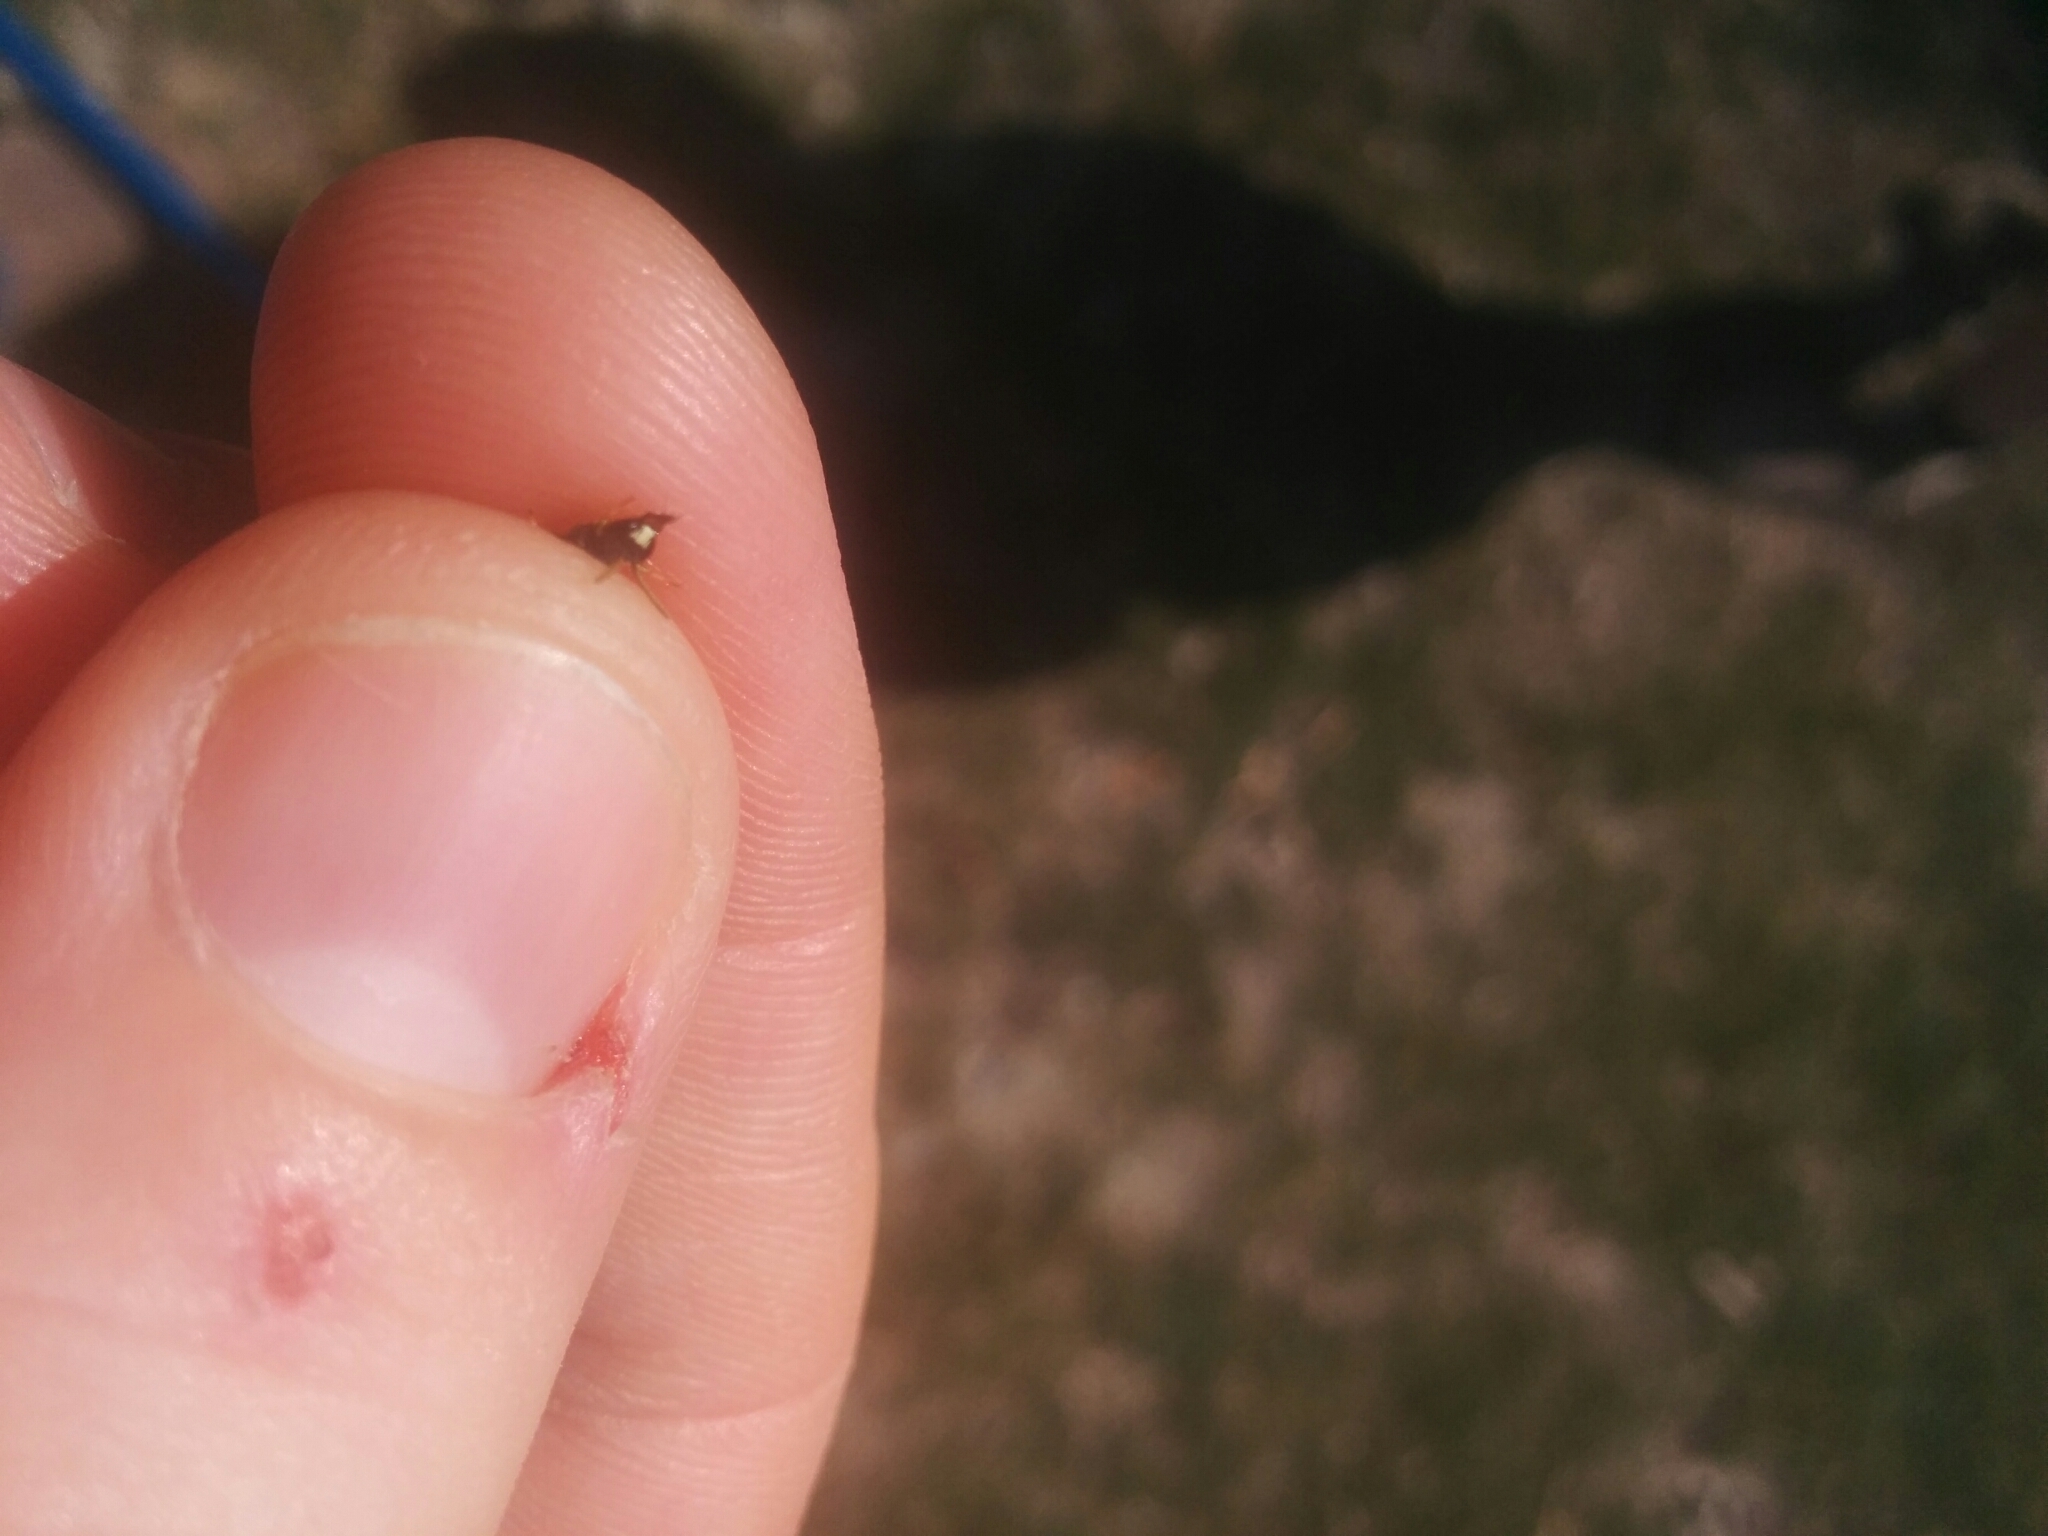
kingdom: Animalia
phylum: Arthropoda
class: Insecta
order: Hymenoptera
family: Colletidae
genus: Hylaeus
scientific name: Hylaeus
